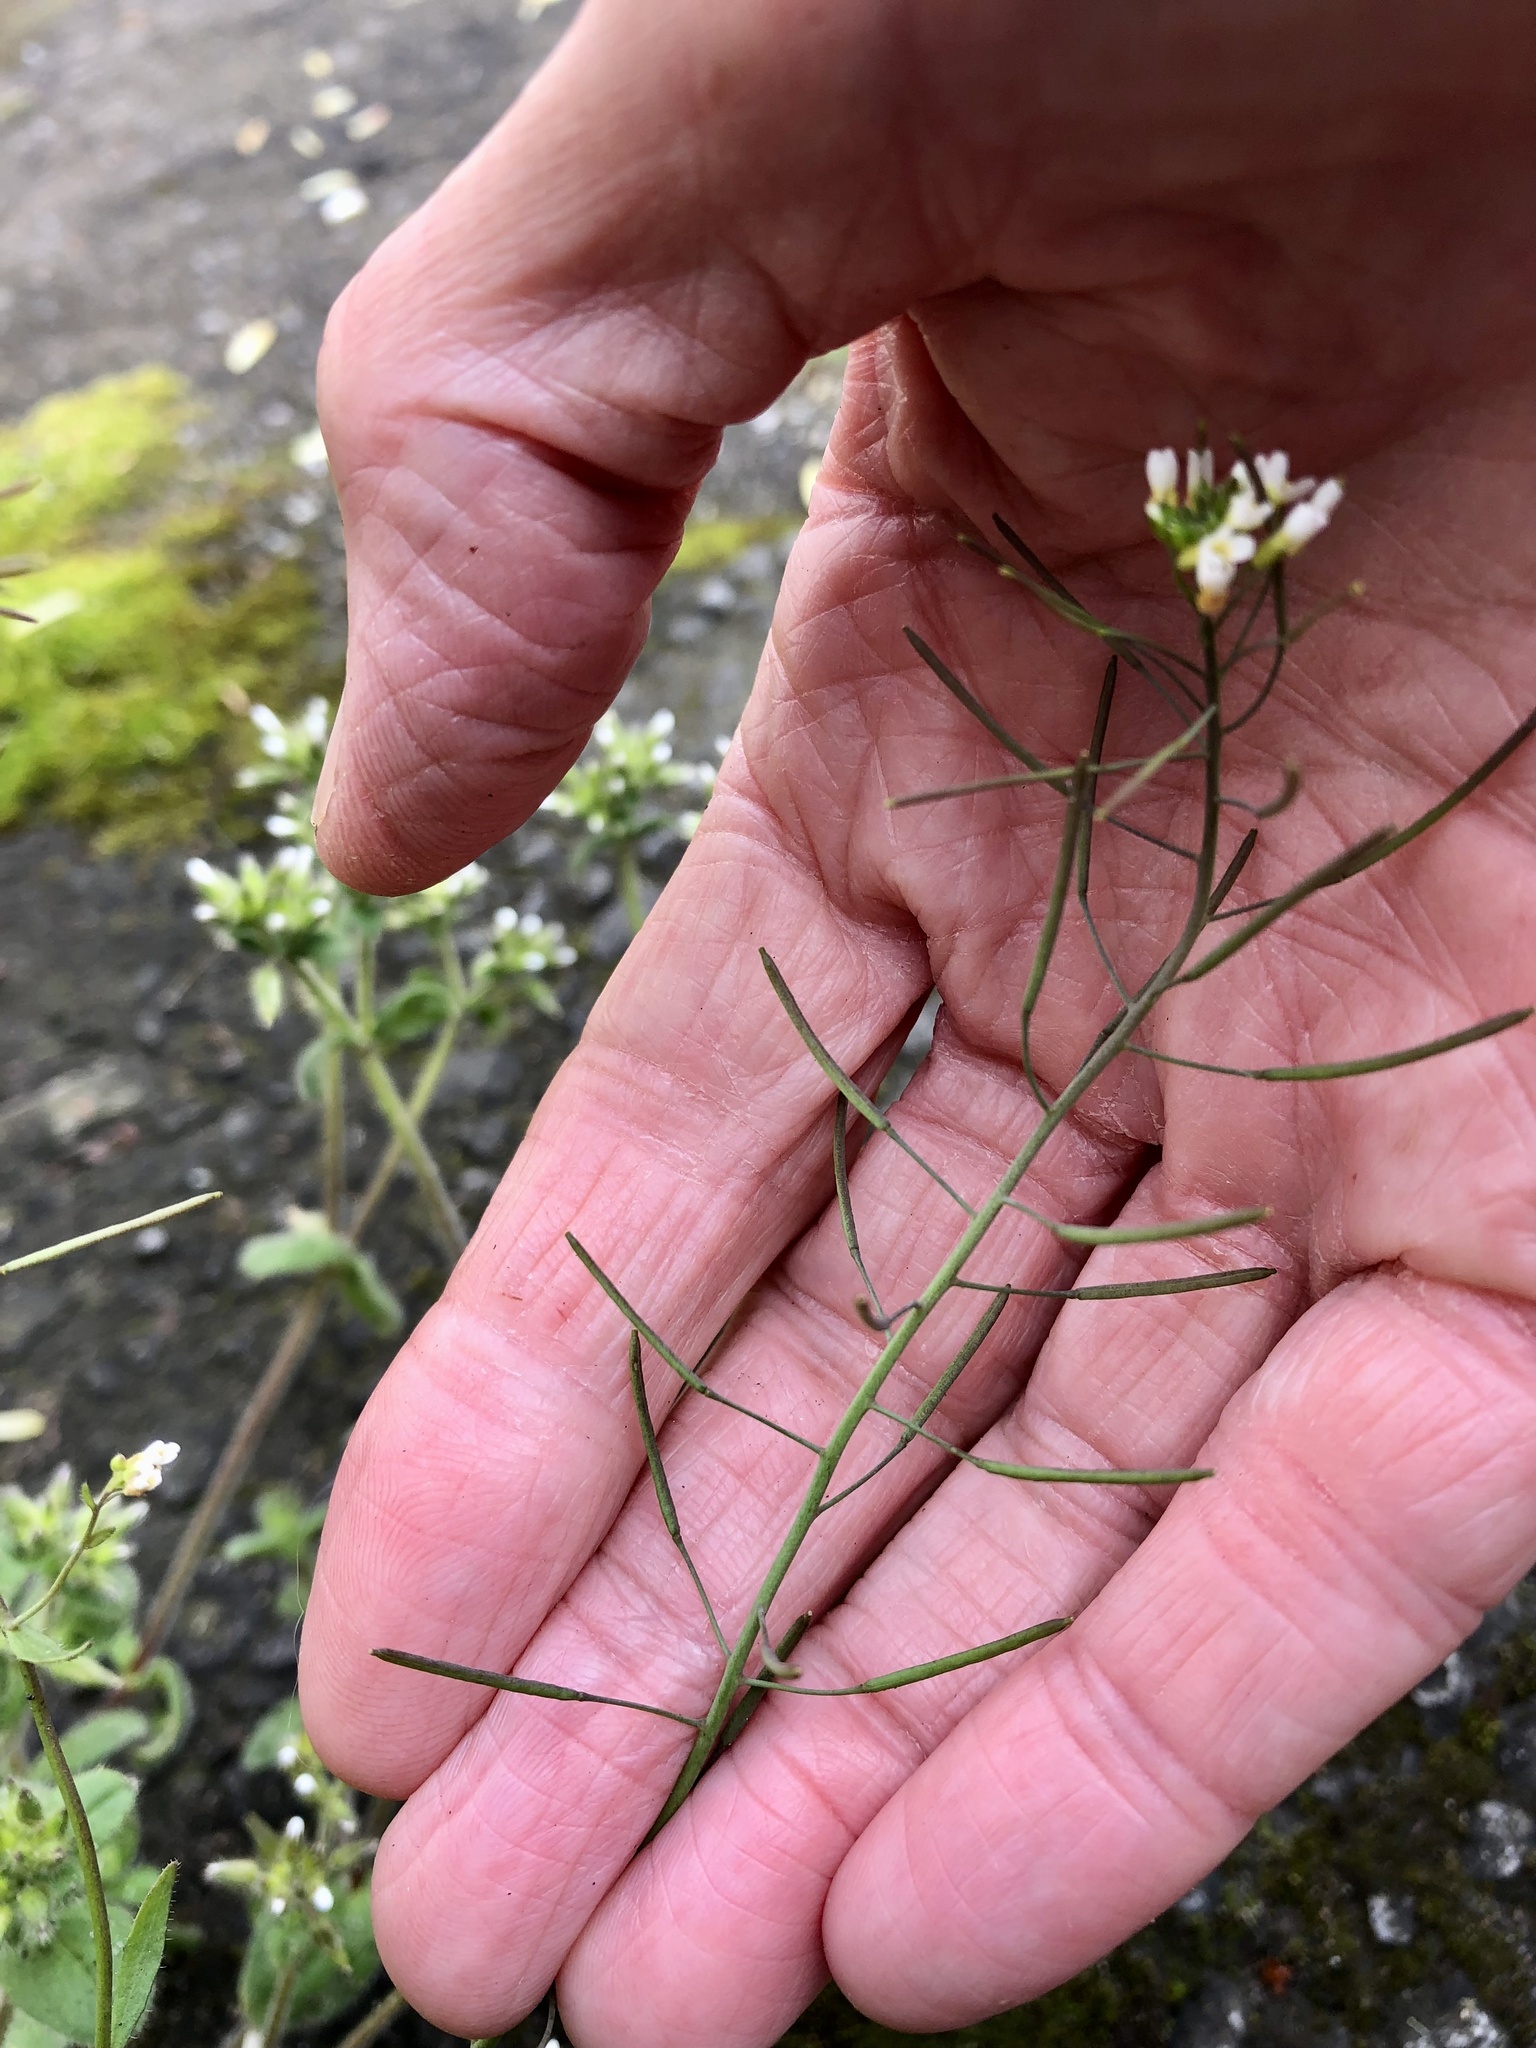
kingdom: Plantae
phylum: Tracheophyta
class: Magnoliopsida
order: Caryophyllales
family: Caryophyllaceae
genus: Cerastium
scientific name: Cerastium glomeratum
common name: Sticky chickweed
